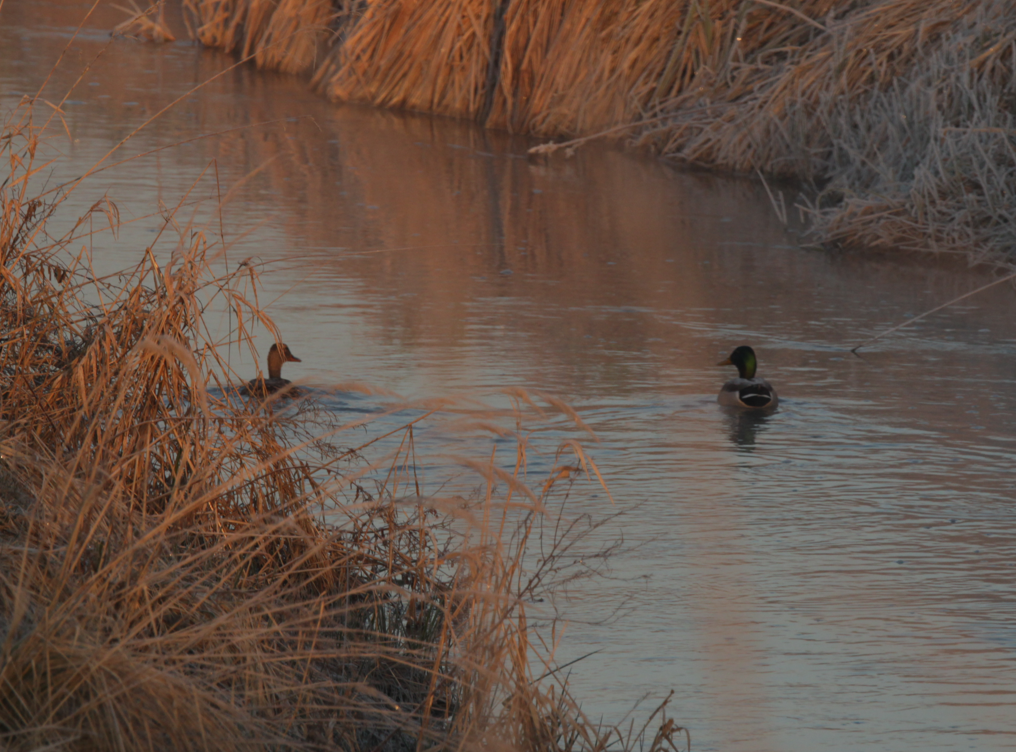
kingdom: Animalia
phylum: Chordata
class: Aves
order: Anseriformes
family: Anatidae
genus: Anas
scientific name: Anas platyrhynchos
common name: Mallard
